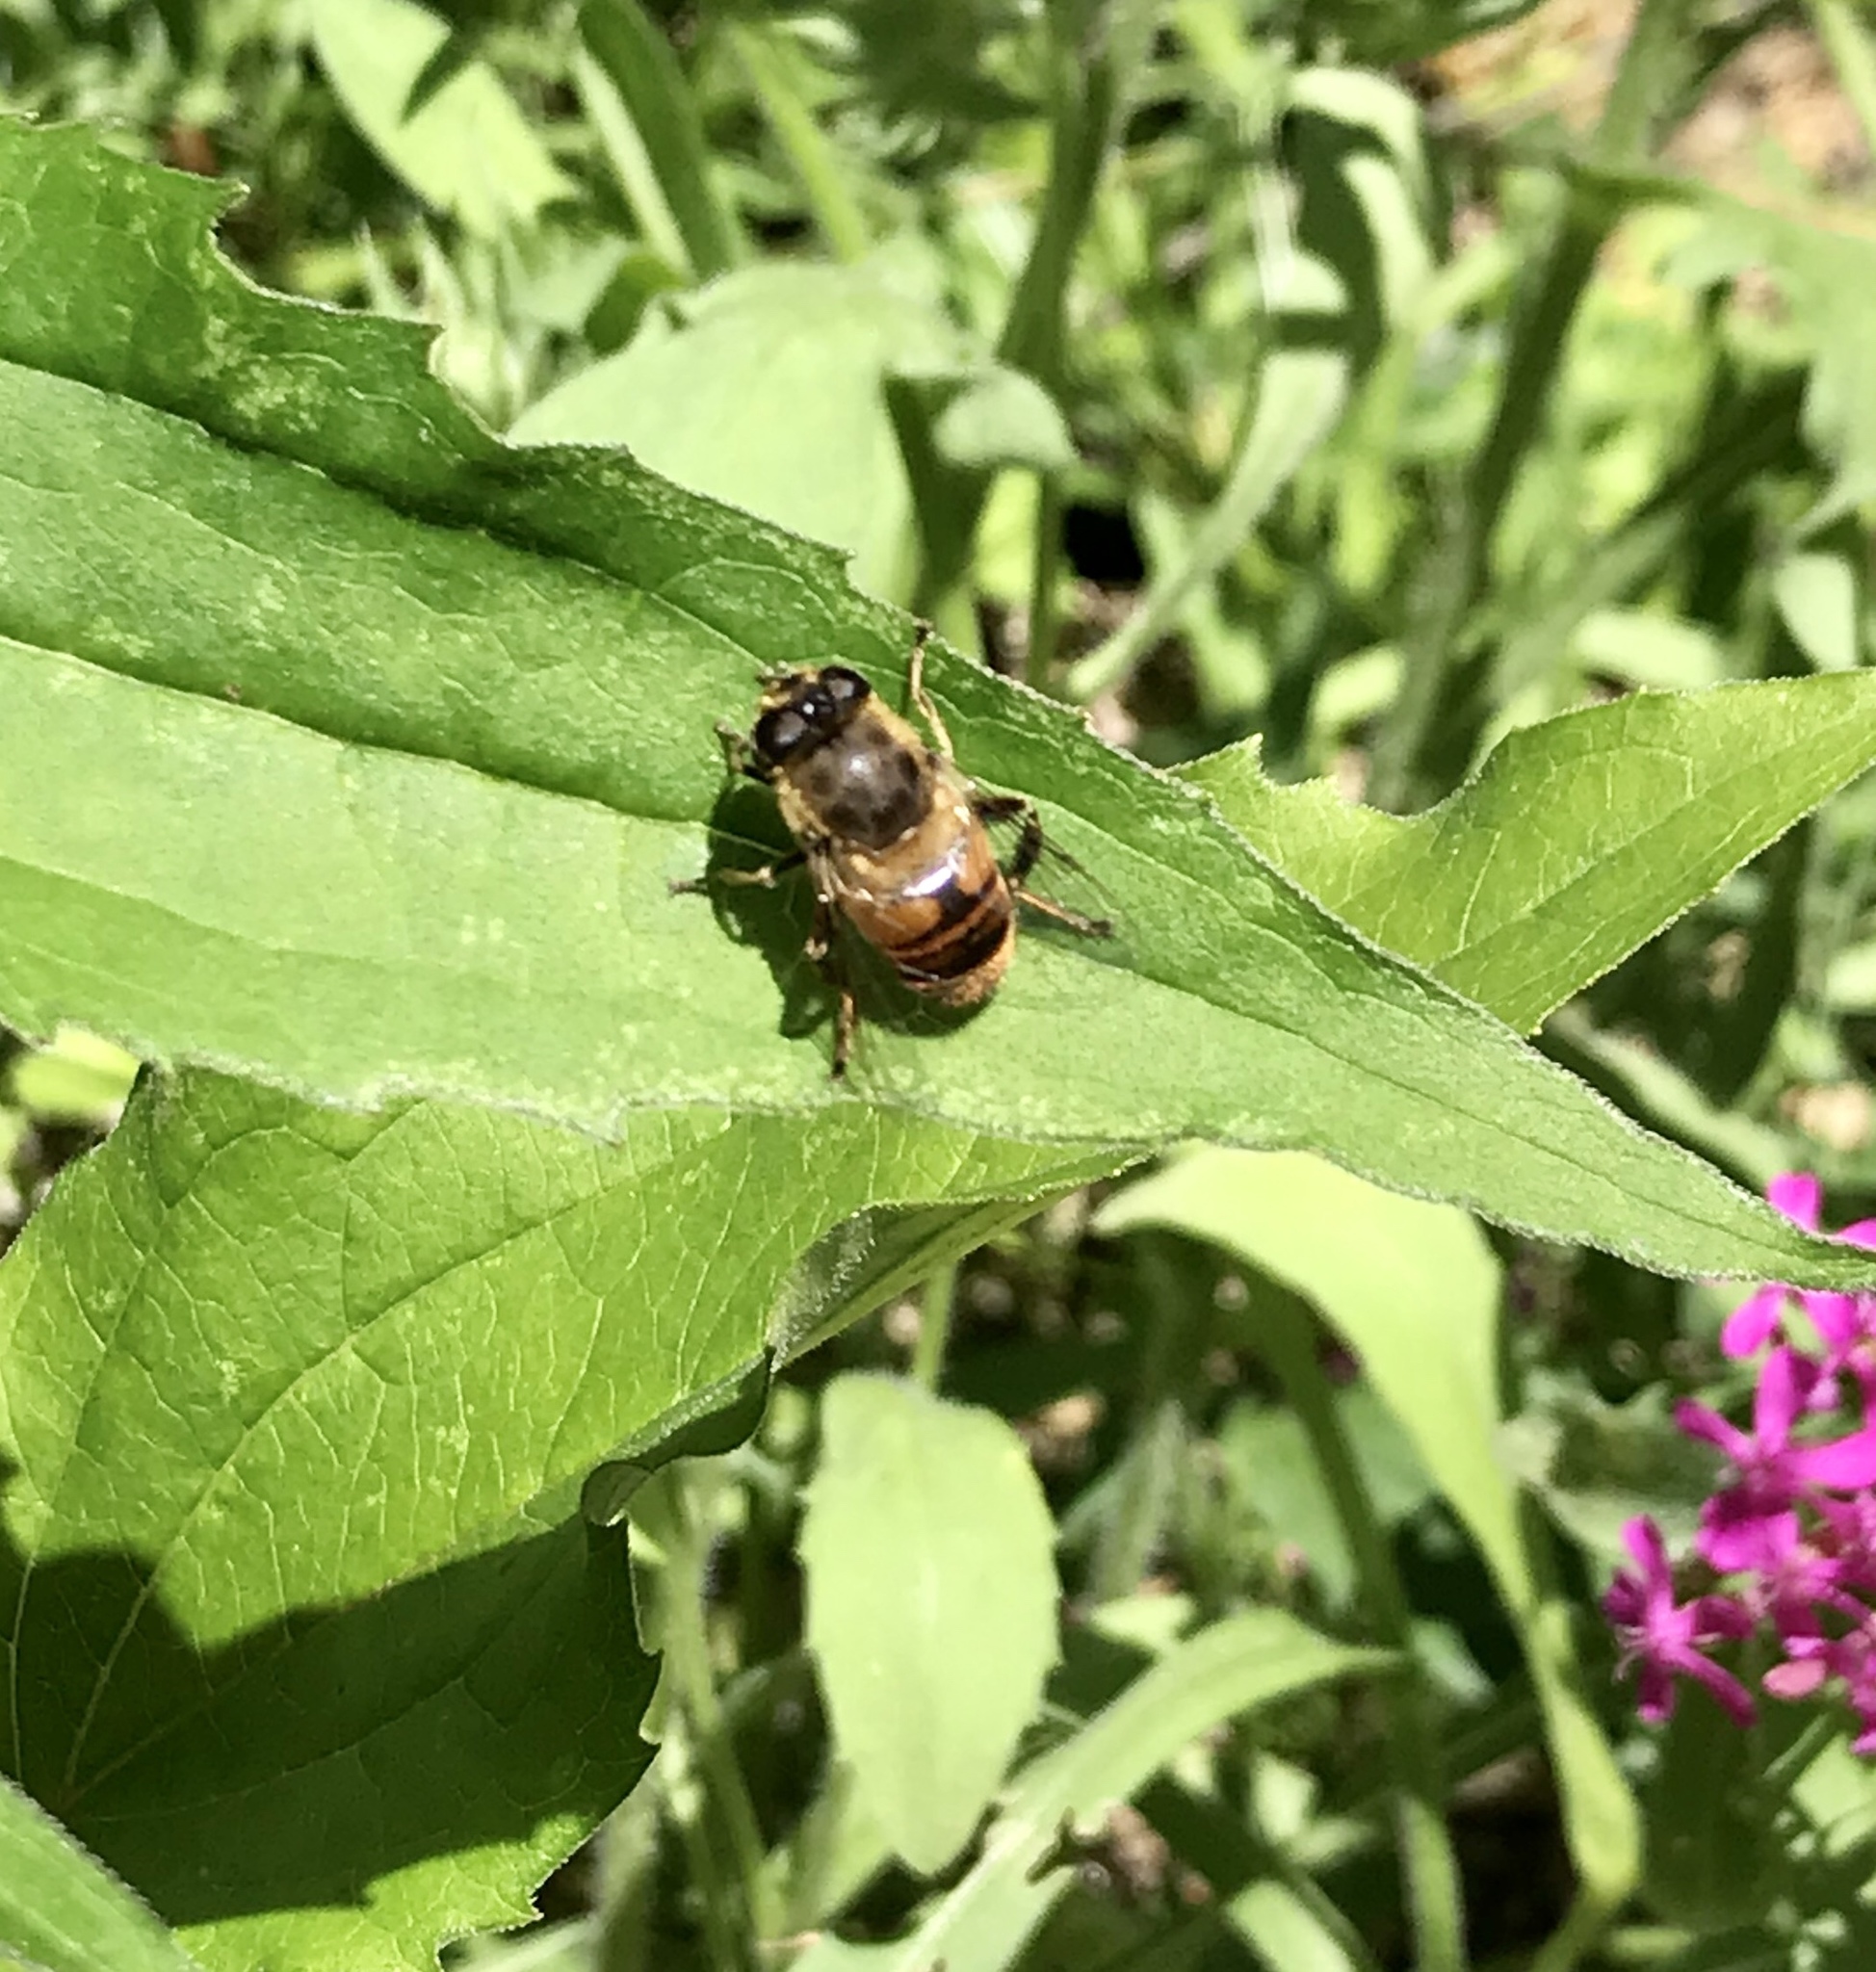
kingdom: Animalia
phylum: Arthropoda
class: Insecta
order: Diptera
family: Syrphidae
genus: Eristalis
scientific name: Eristalis tenax
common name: Drone fly
